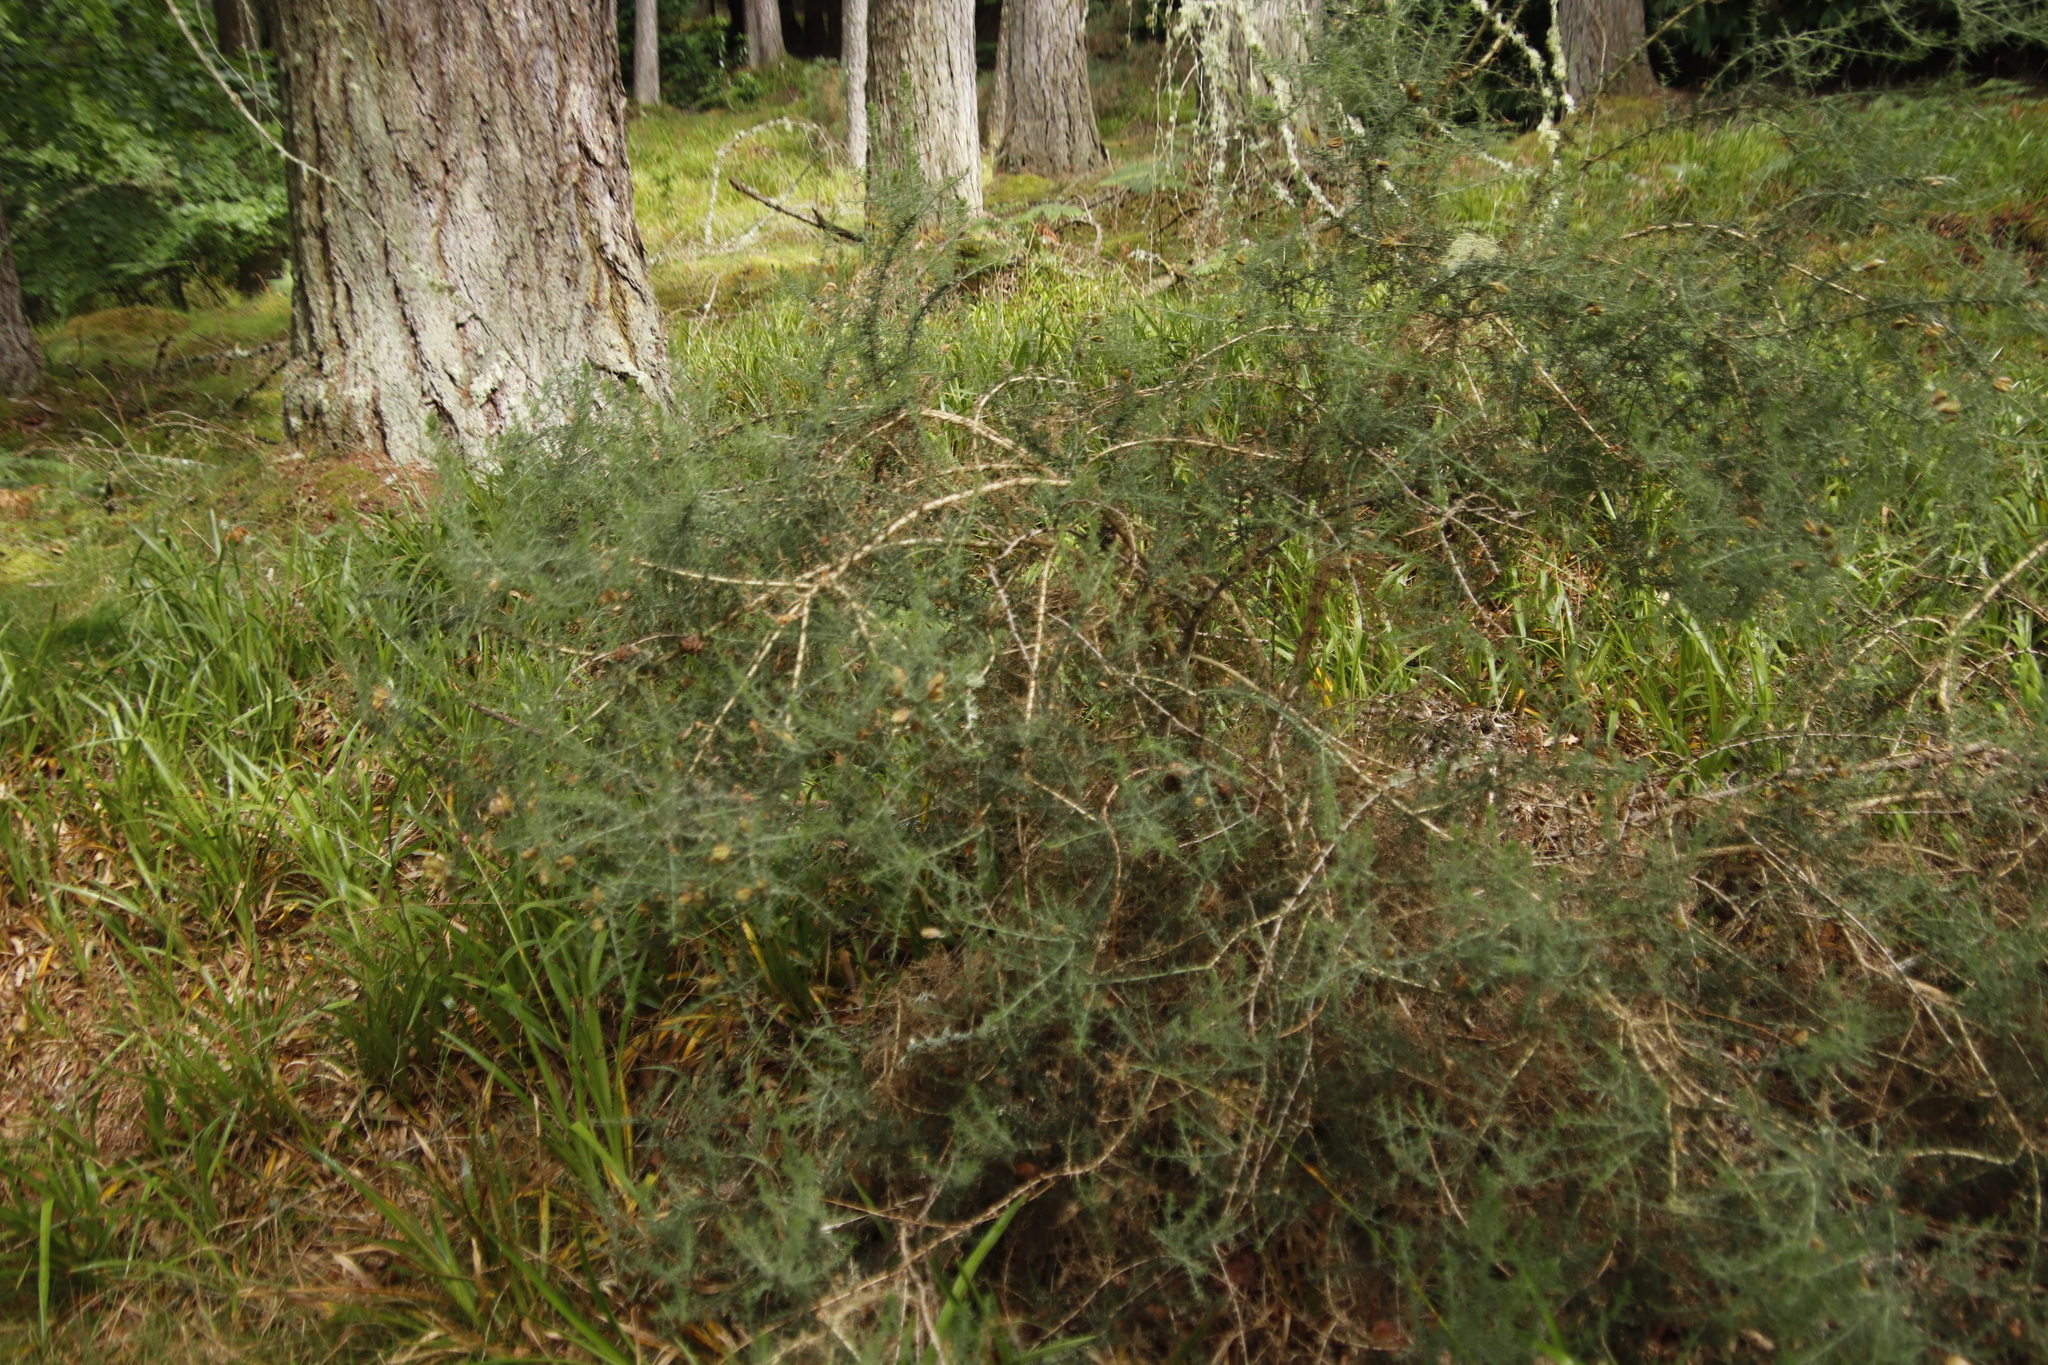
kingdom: Plantae
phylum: Tracheophyta
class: Magnoliopsida
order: Fabales
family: Fabaceae
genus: Ulex
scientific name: Ulex europaeus
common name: Common gorse
